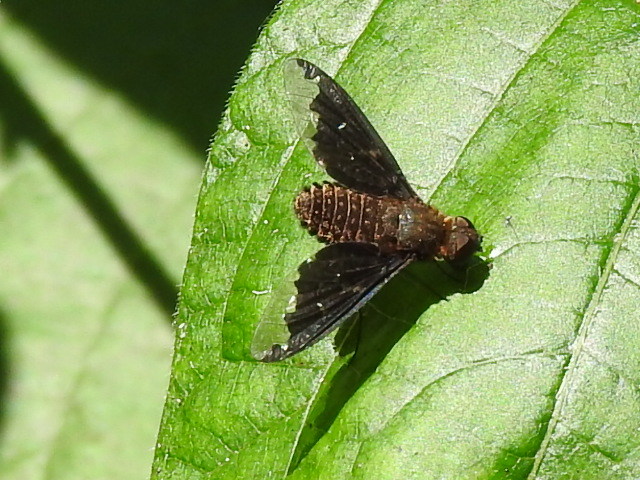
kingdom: Animalia
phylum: Arthropoda
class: Insecta
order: Diptera
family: Bombyliidae
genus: Hemipenthes
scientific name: Hemipenthes sinuosus
